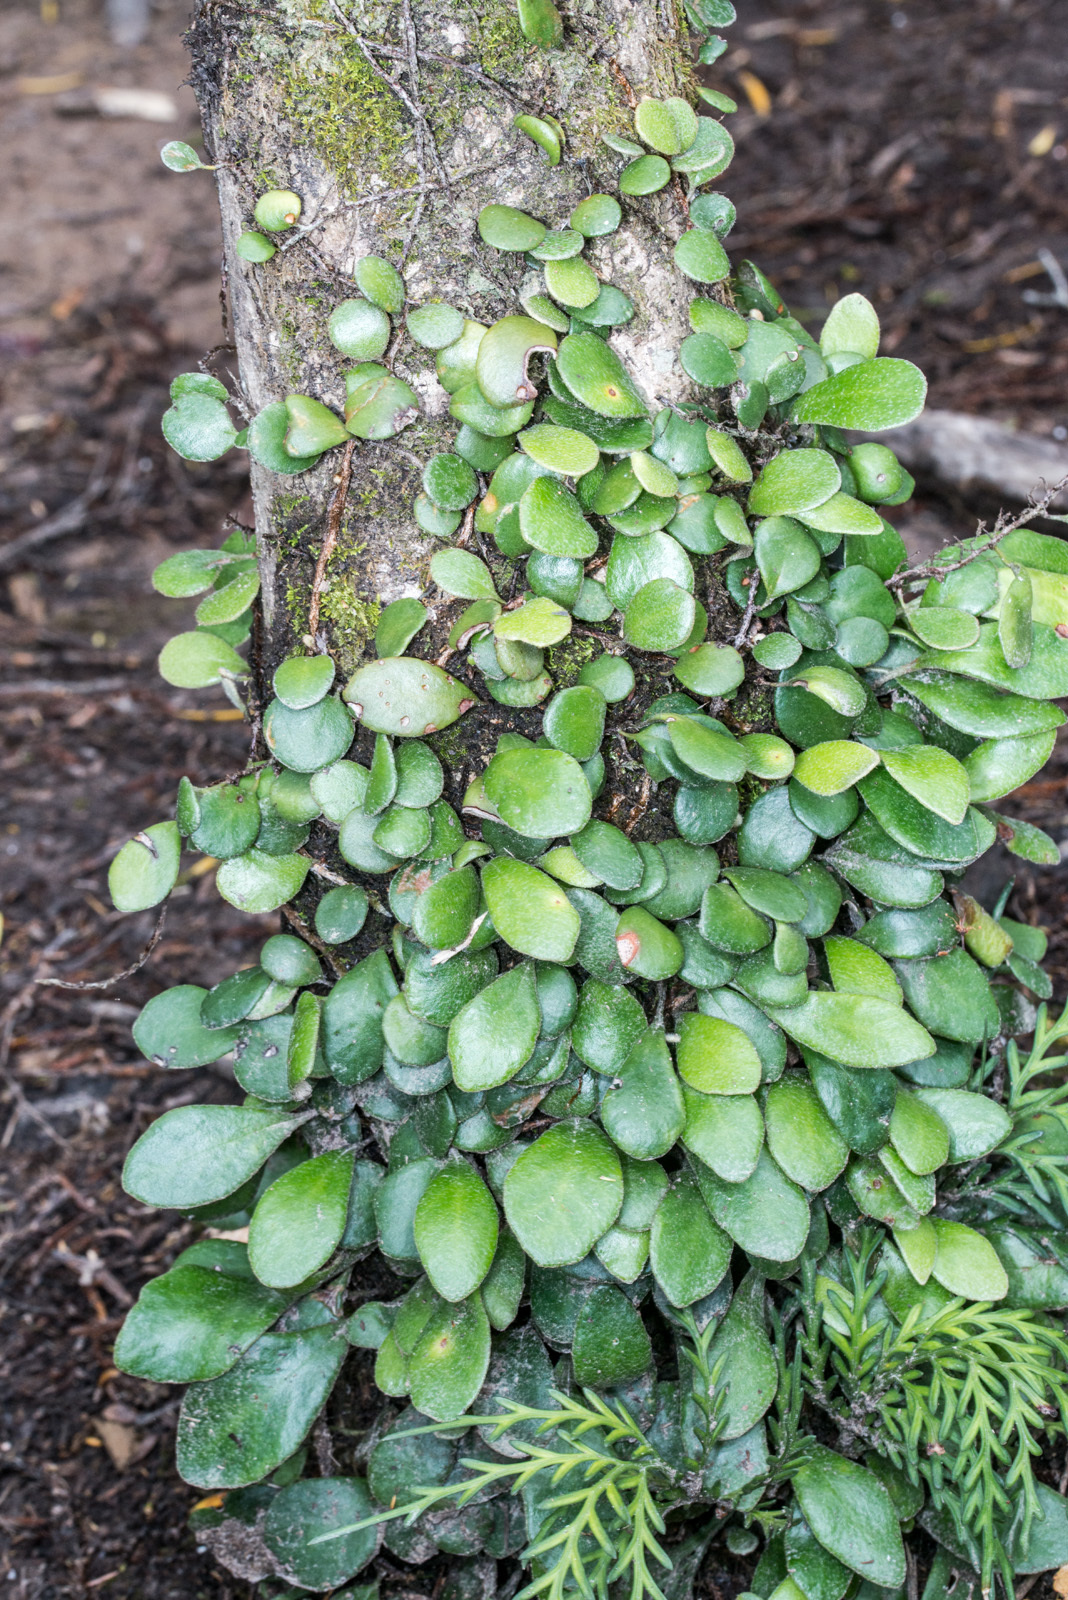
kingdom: Plantae
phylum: Tracheophyta
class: Polypodiopsida
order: Polypodiales
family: Polypodiaceae
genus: Pyrrosia
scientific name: Pyrrosia eleagnifolia
